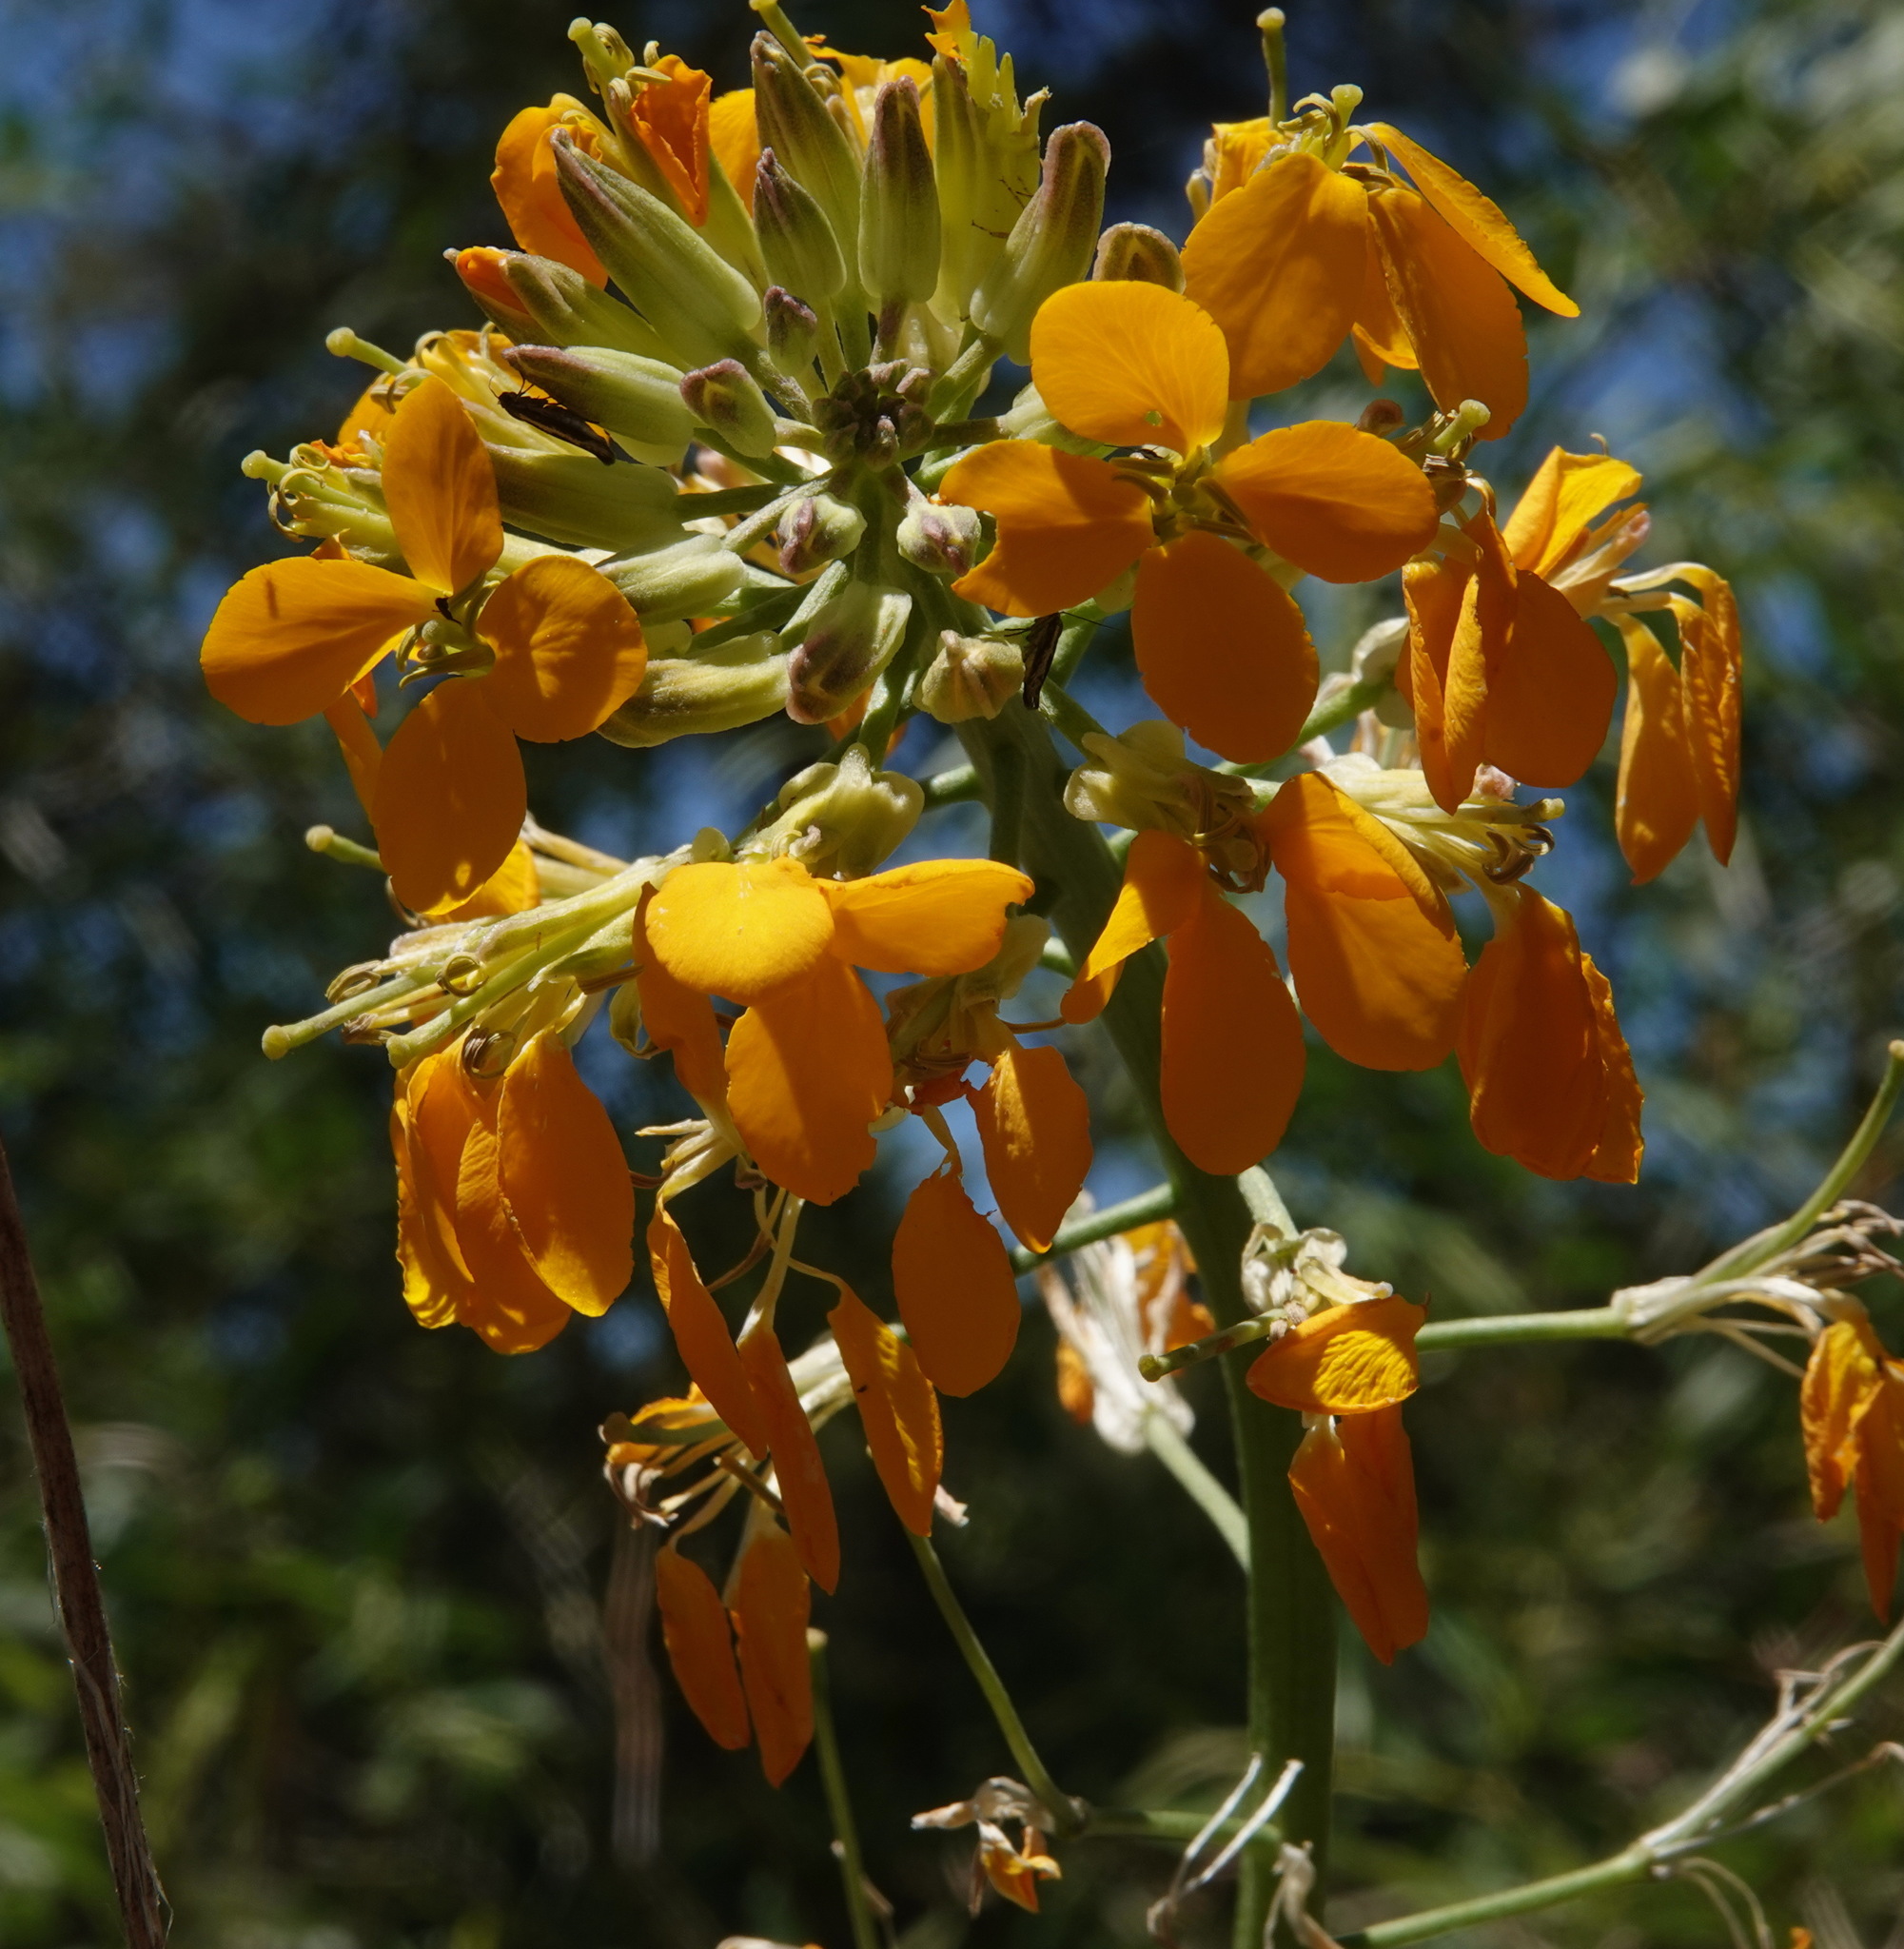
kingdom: Plantae
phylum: Tracheophyta
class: Magnoliopsida
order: Brassicales
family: Brassicaceae
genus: Erysimum
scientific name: Erysimum capitatum
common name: Western wallflower
